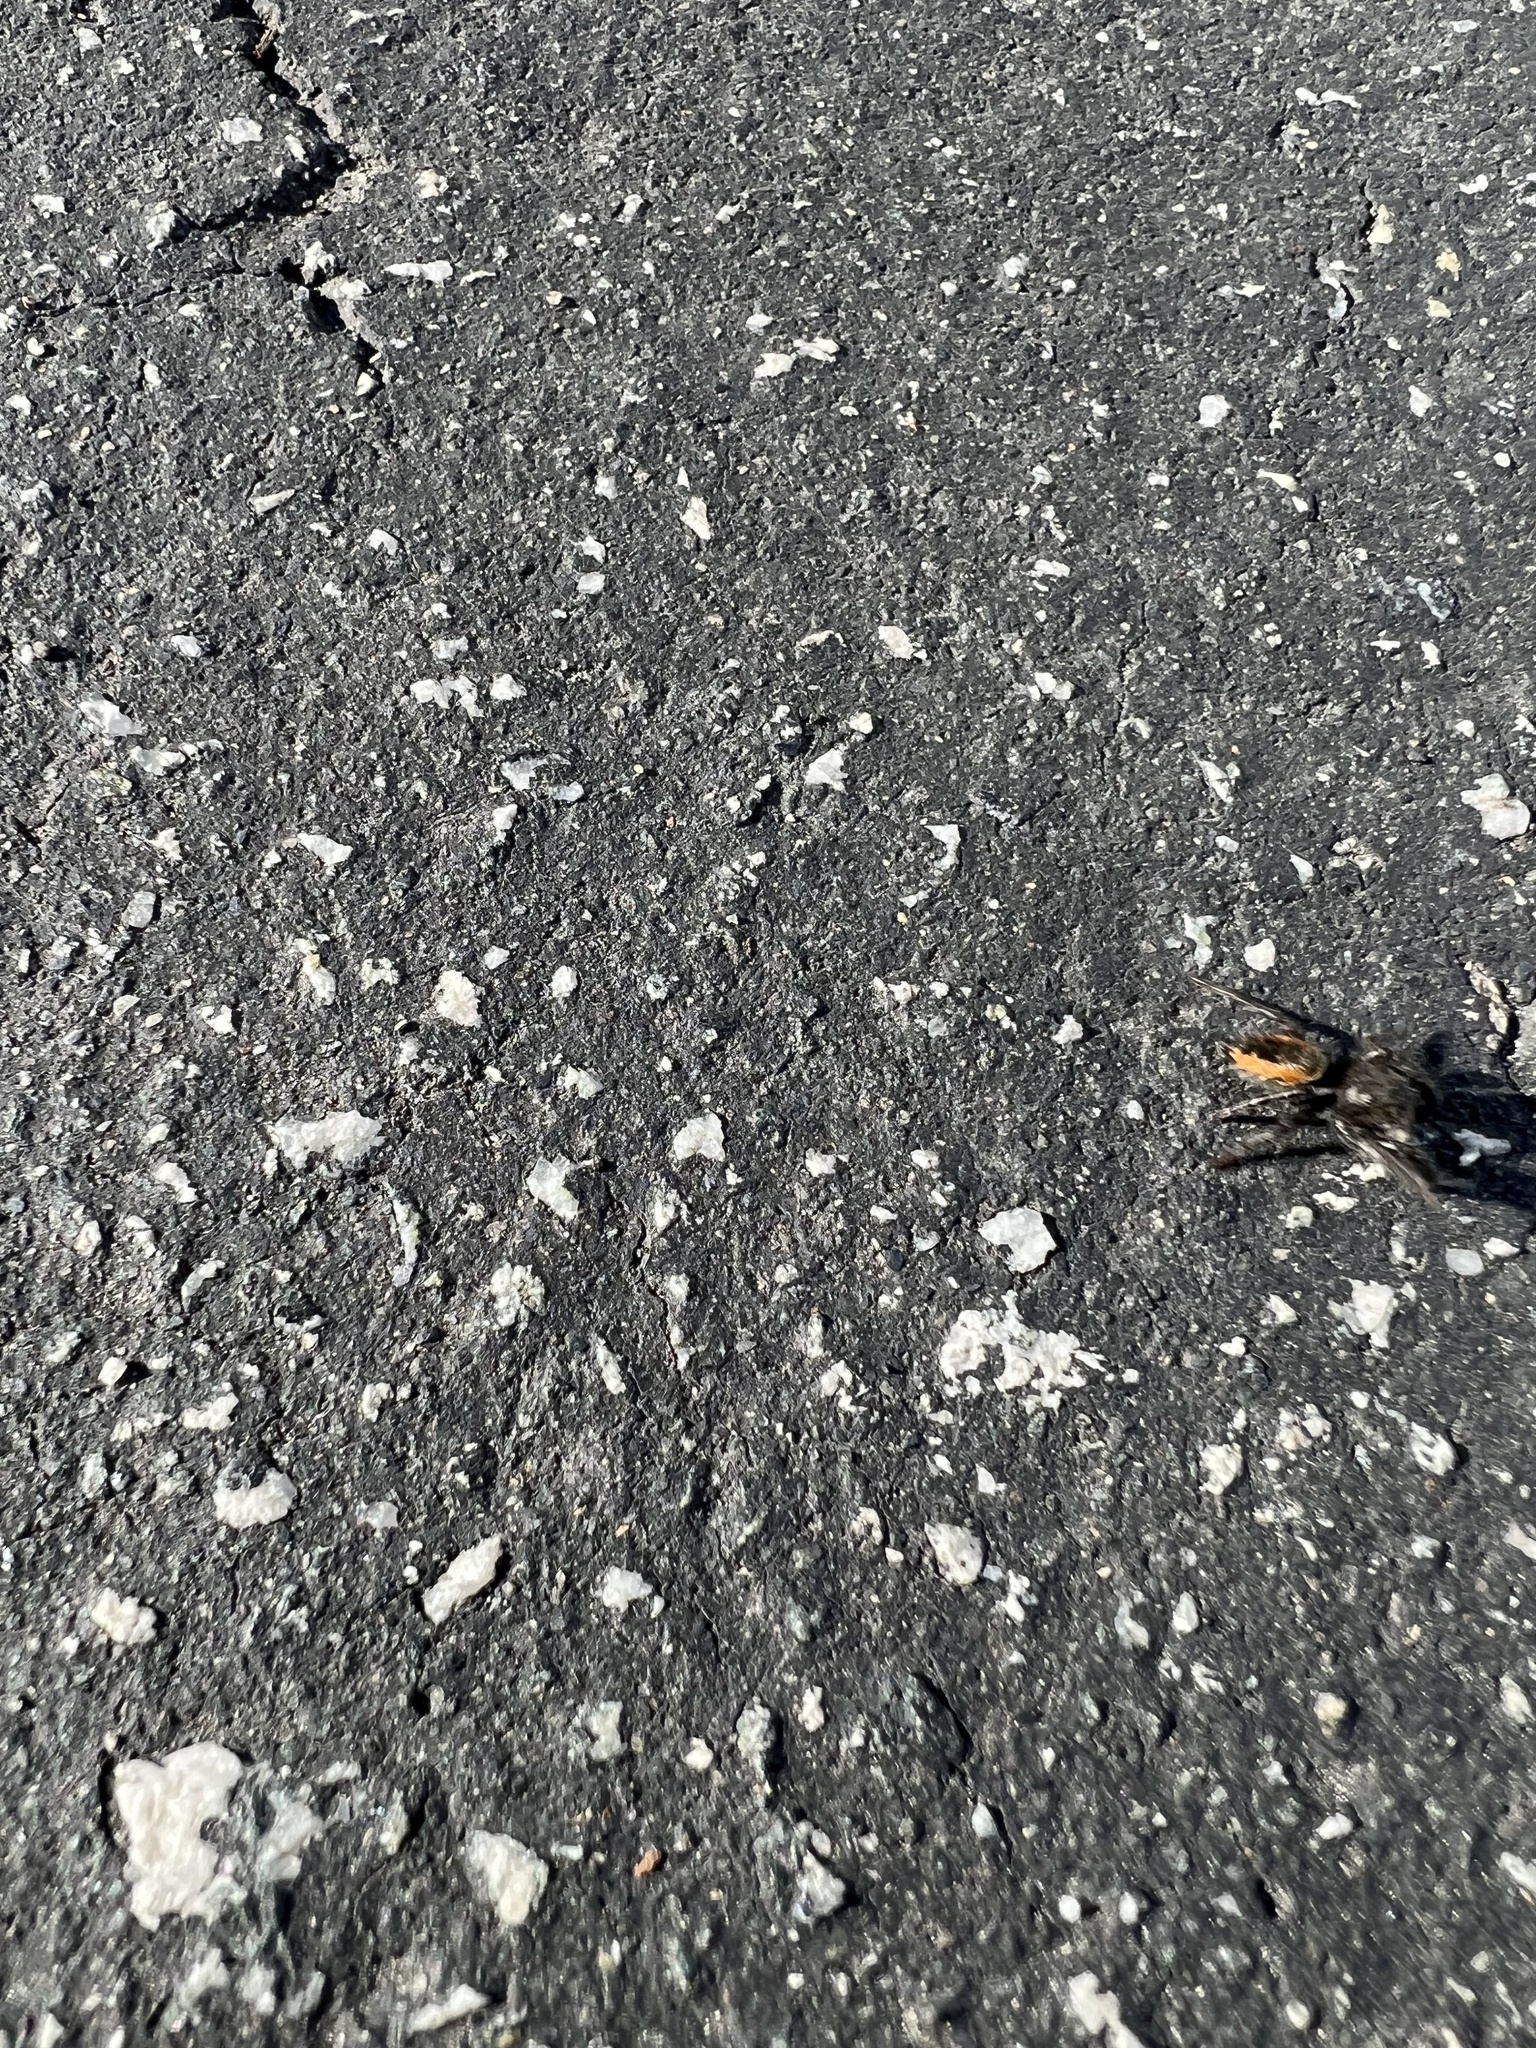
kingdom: Animalia
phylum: Arthropoda
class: Arachnida
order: Araneae
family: Salticidae
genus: Phidippus
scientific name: Phidippus johnsoni
